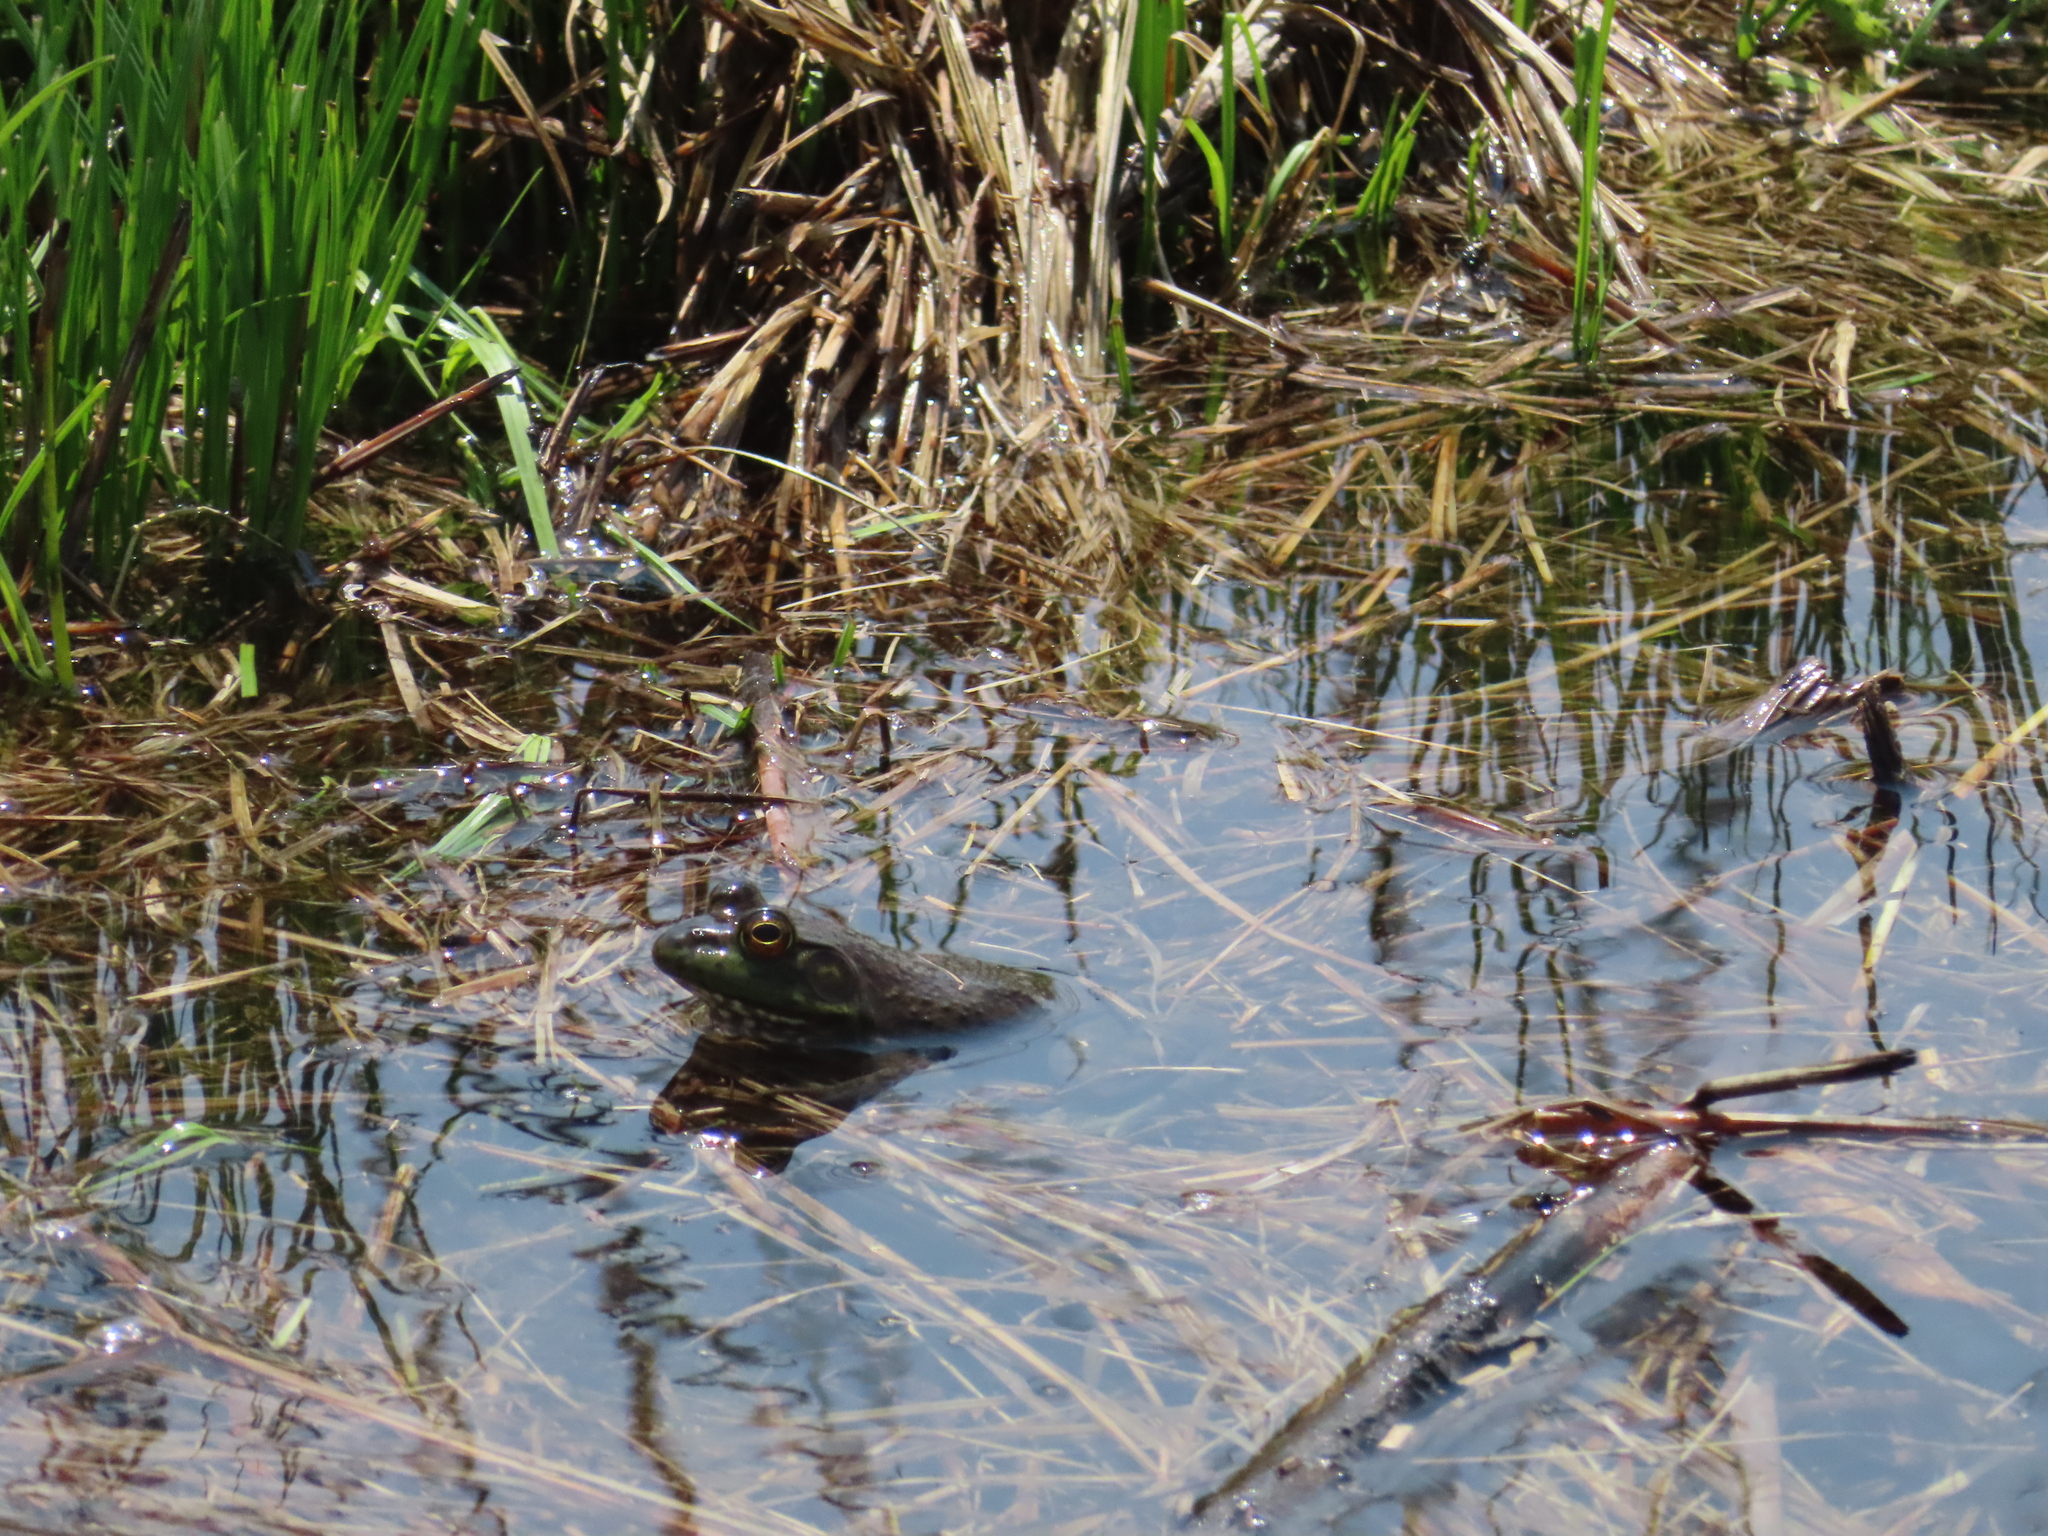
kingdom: Animalia
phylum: Chordata
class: Amphibia
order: Anura
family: Ranidae
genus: Lithobates
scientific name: Lithobates catesbeianus
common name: American bullfrog
